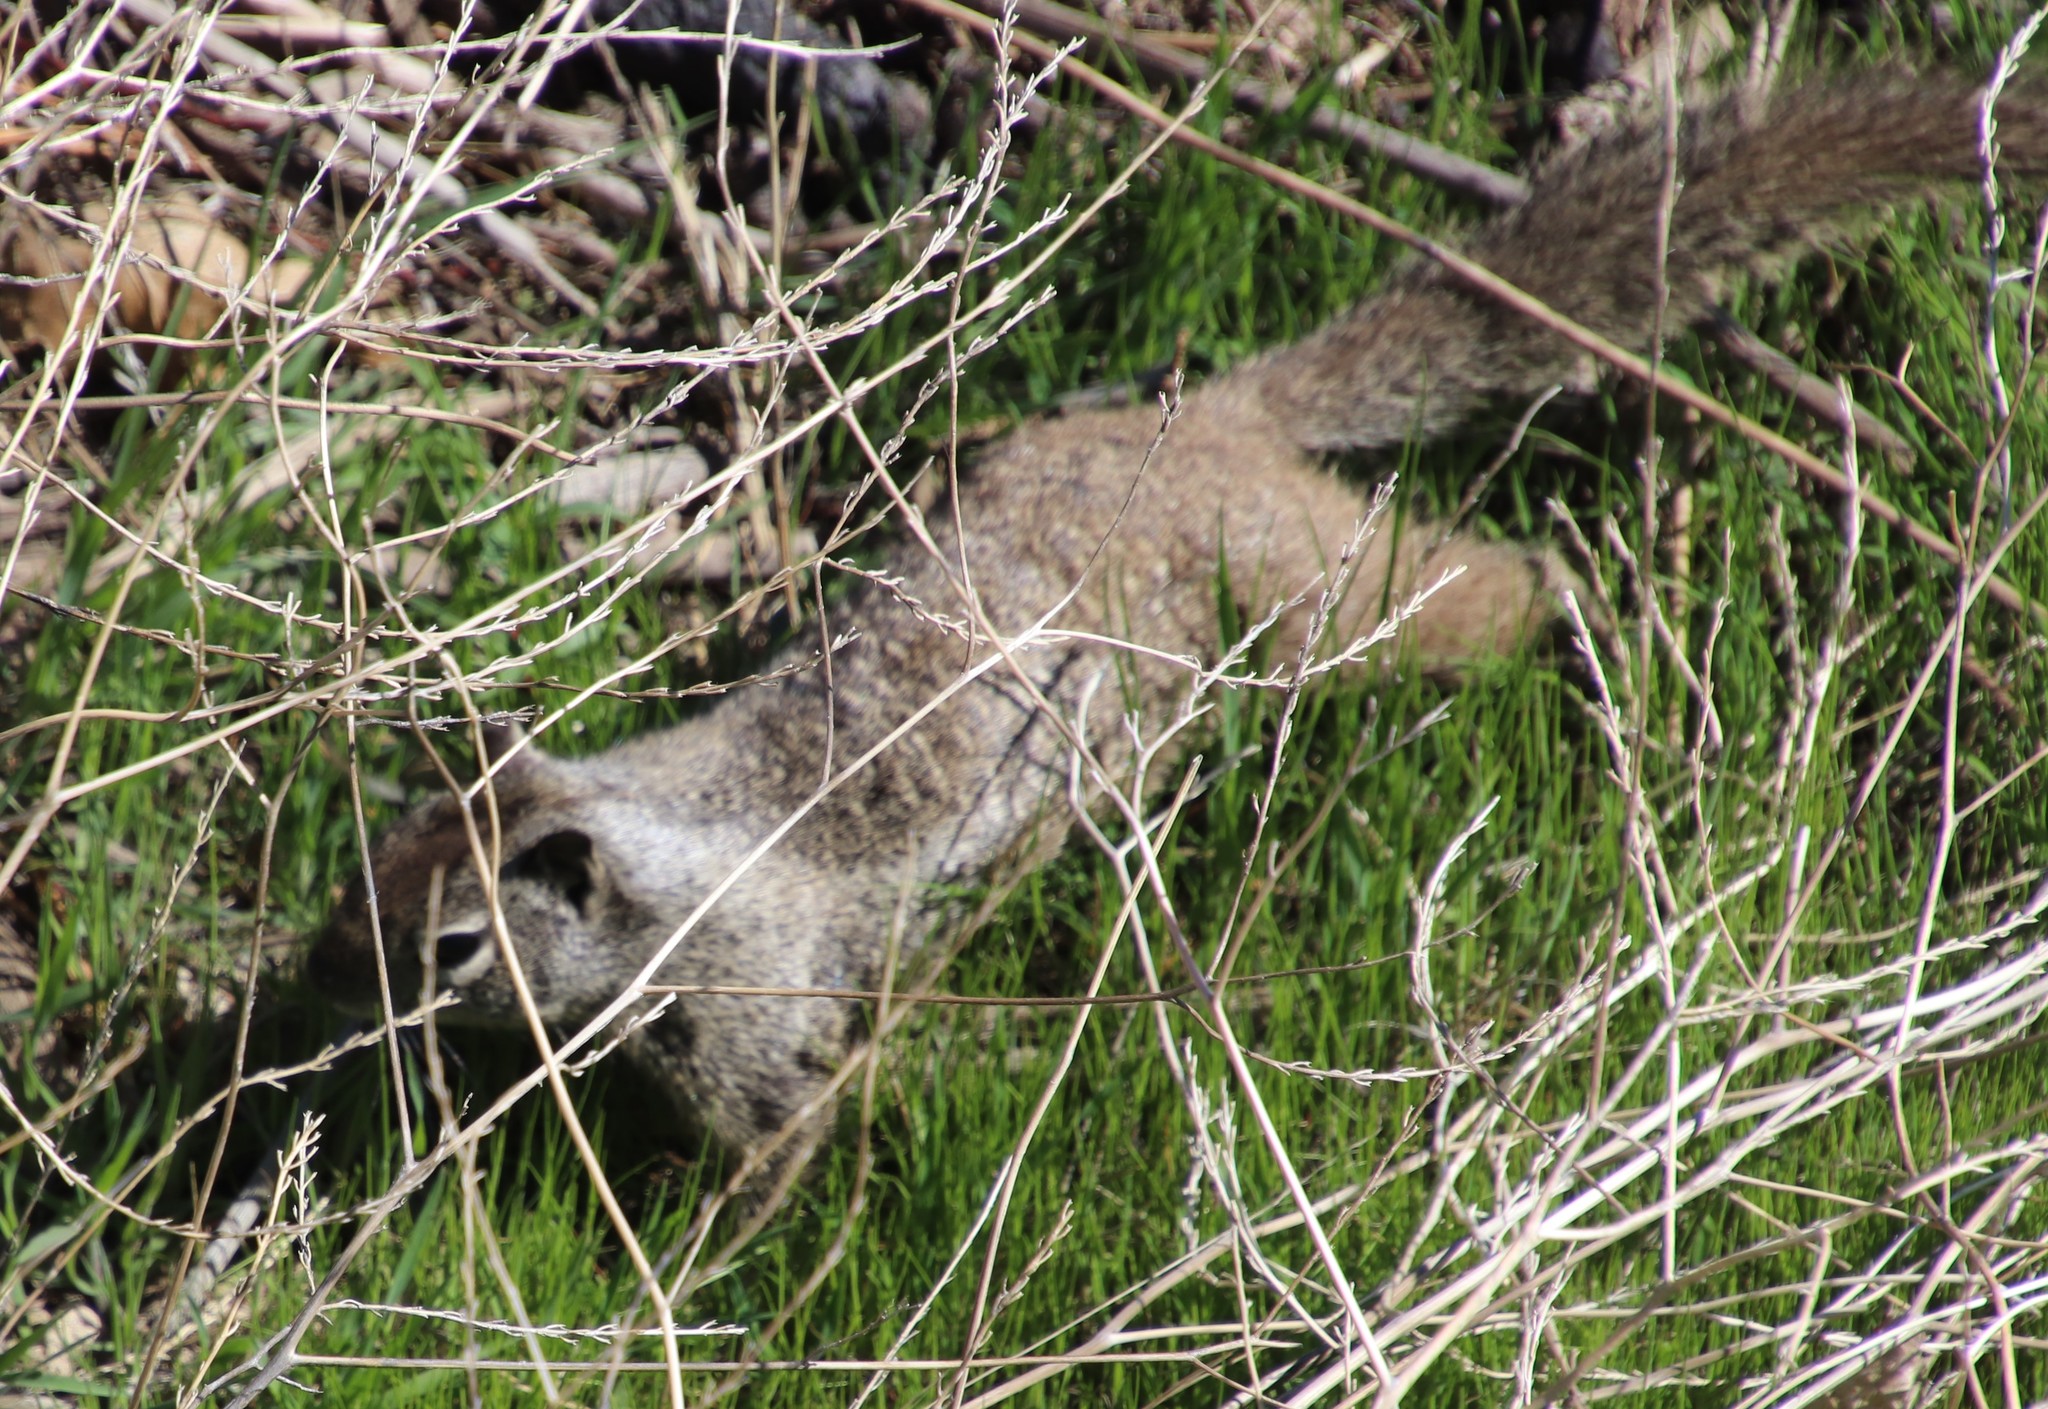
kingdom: Animalia
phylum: Chordata
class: Mammalia
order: Rodentia
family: Sciuridae
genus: Otospermophilus
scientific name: Otospermophilus beecheyi
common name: California ground squirrel
